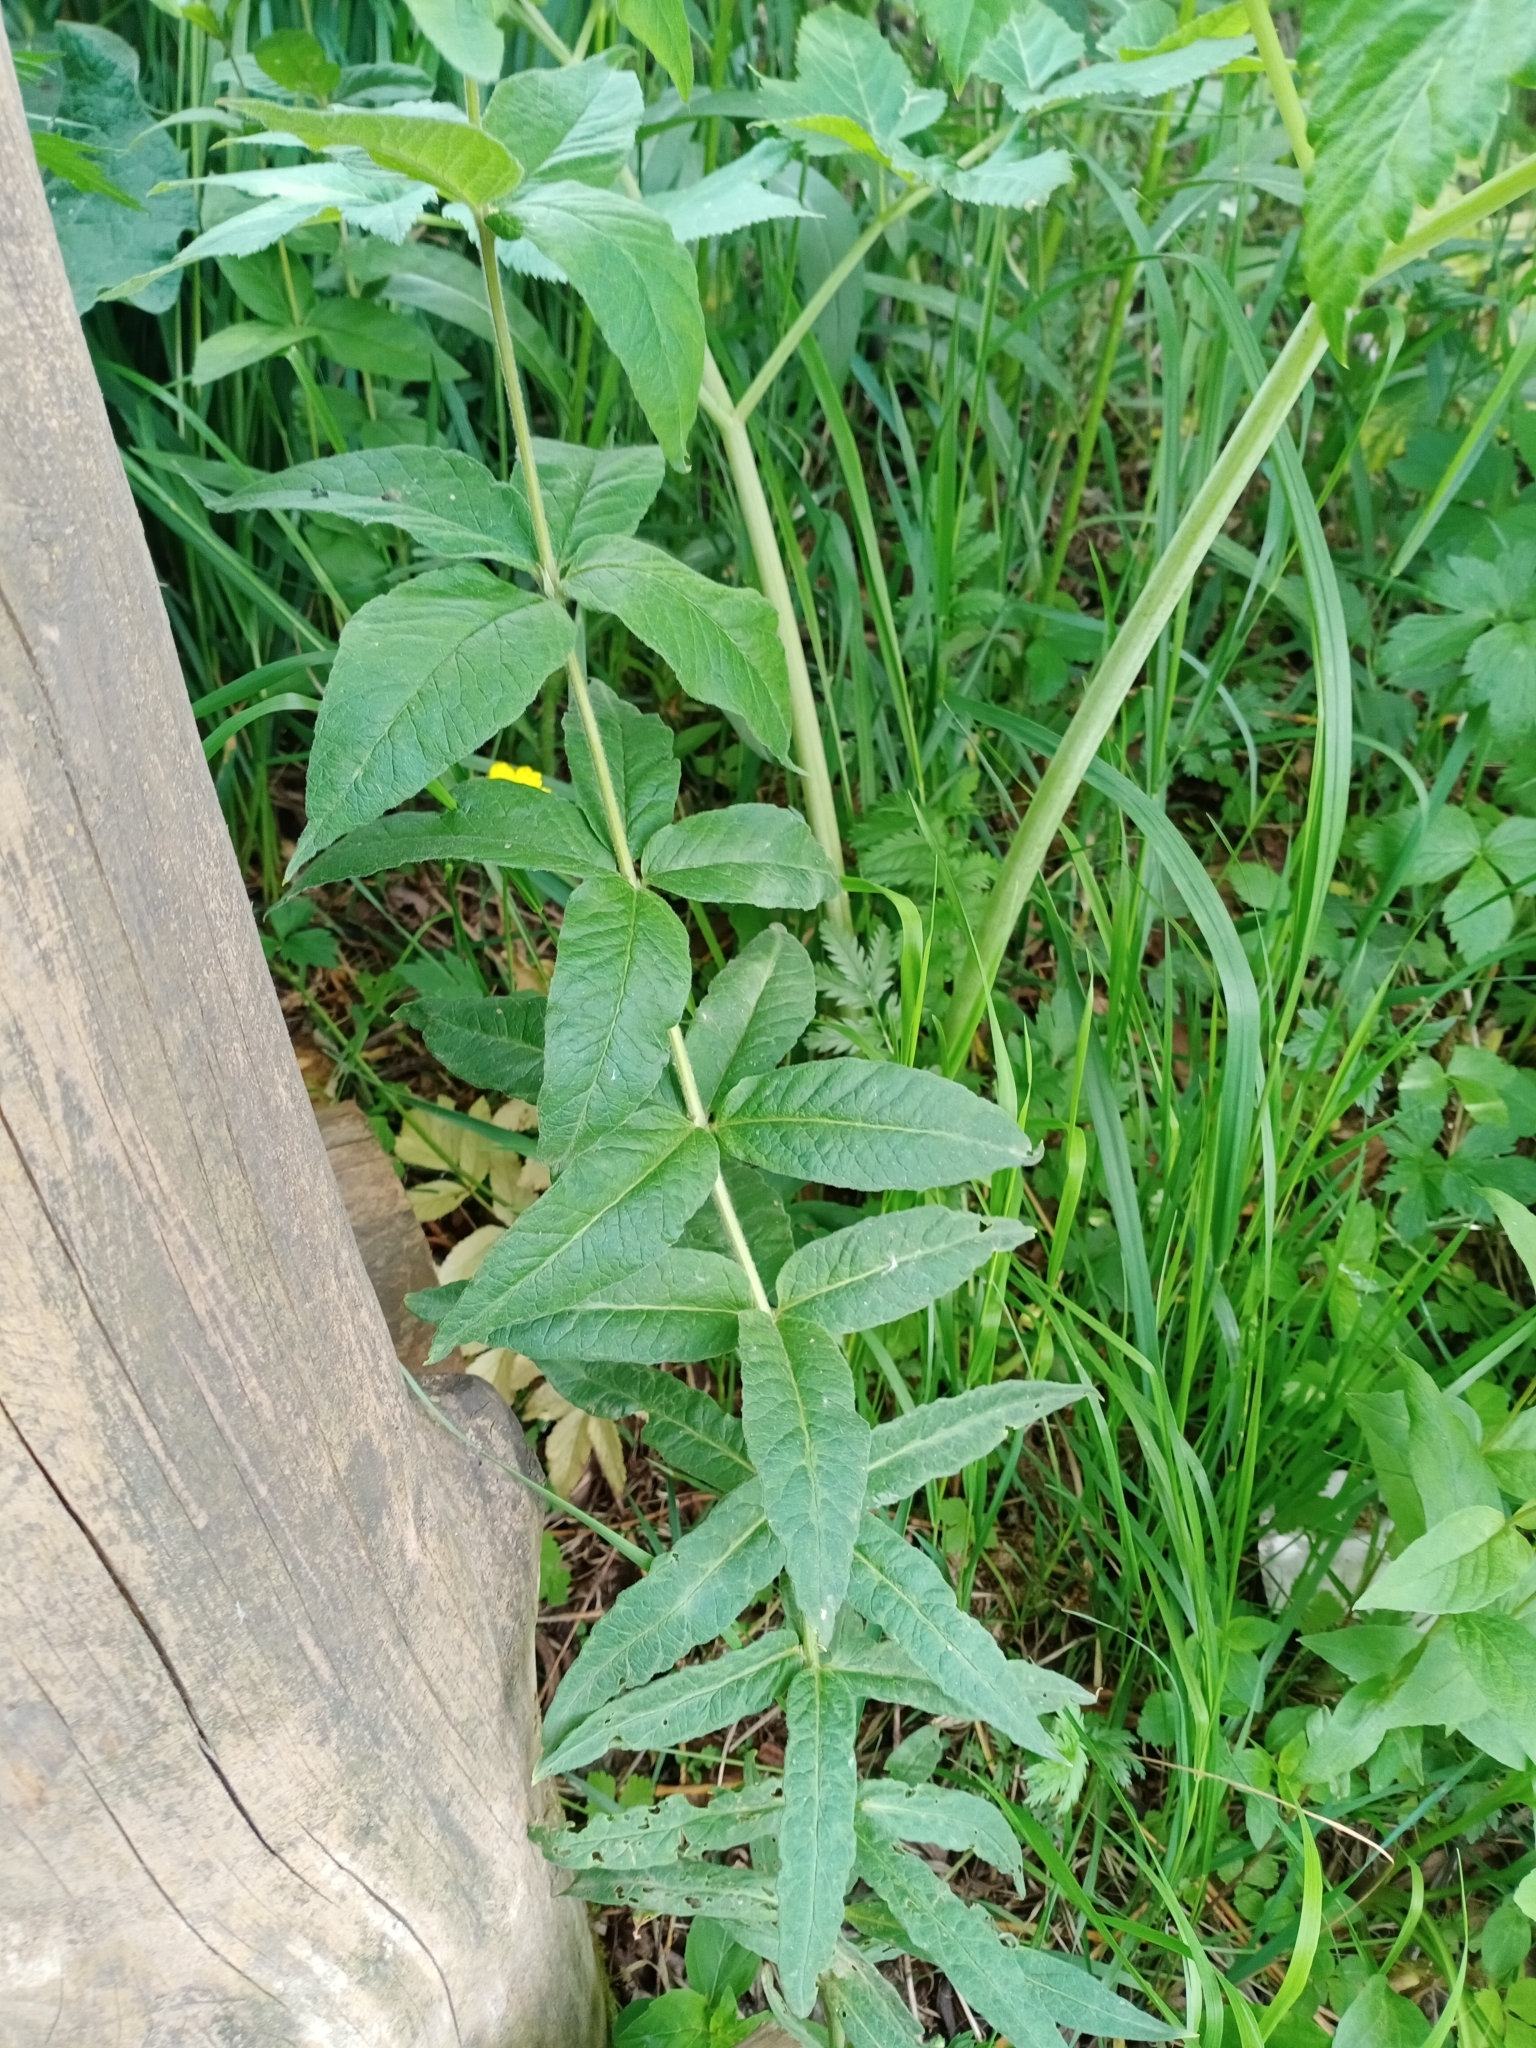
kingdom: Plantae
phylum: Tracheophyta
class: Magnoliopsida
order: Ericales
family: Primulaceae
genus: Lysimachia
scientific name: Lysimachia vulgaris
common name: Yellow loosestrife
